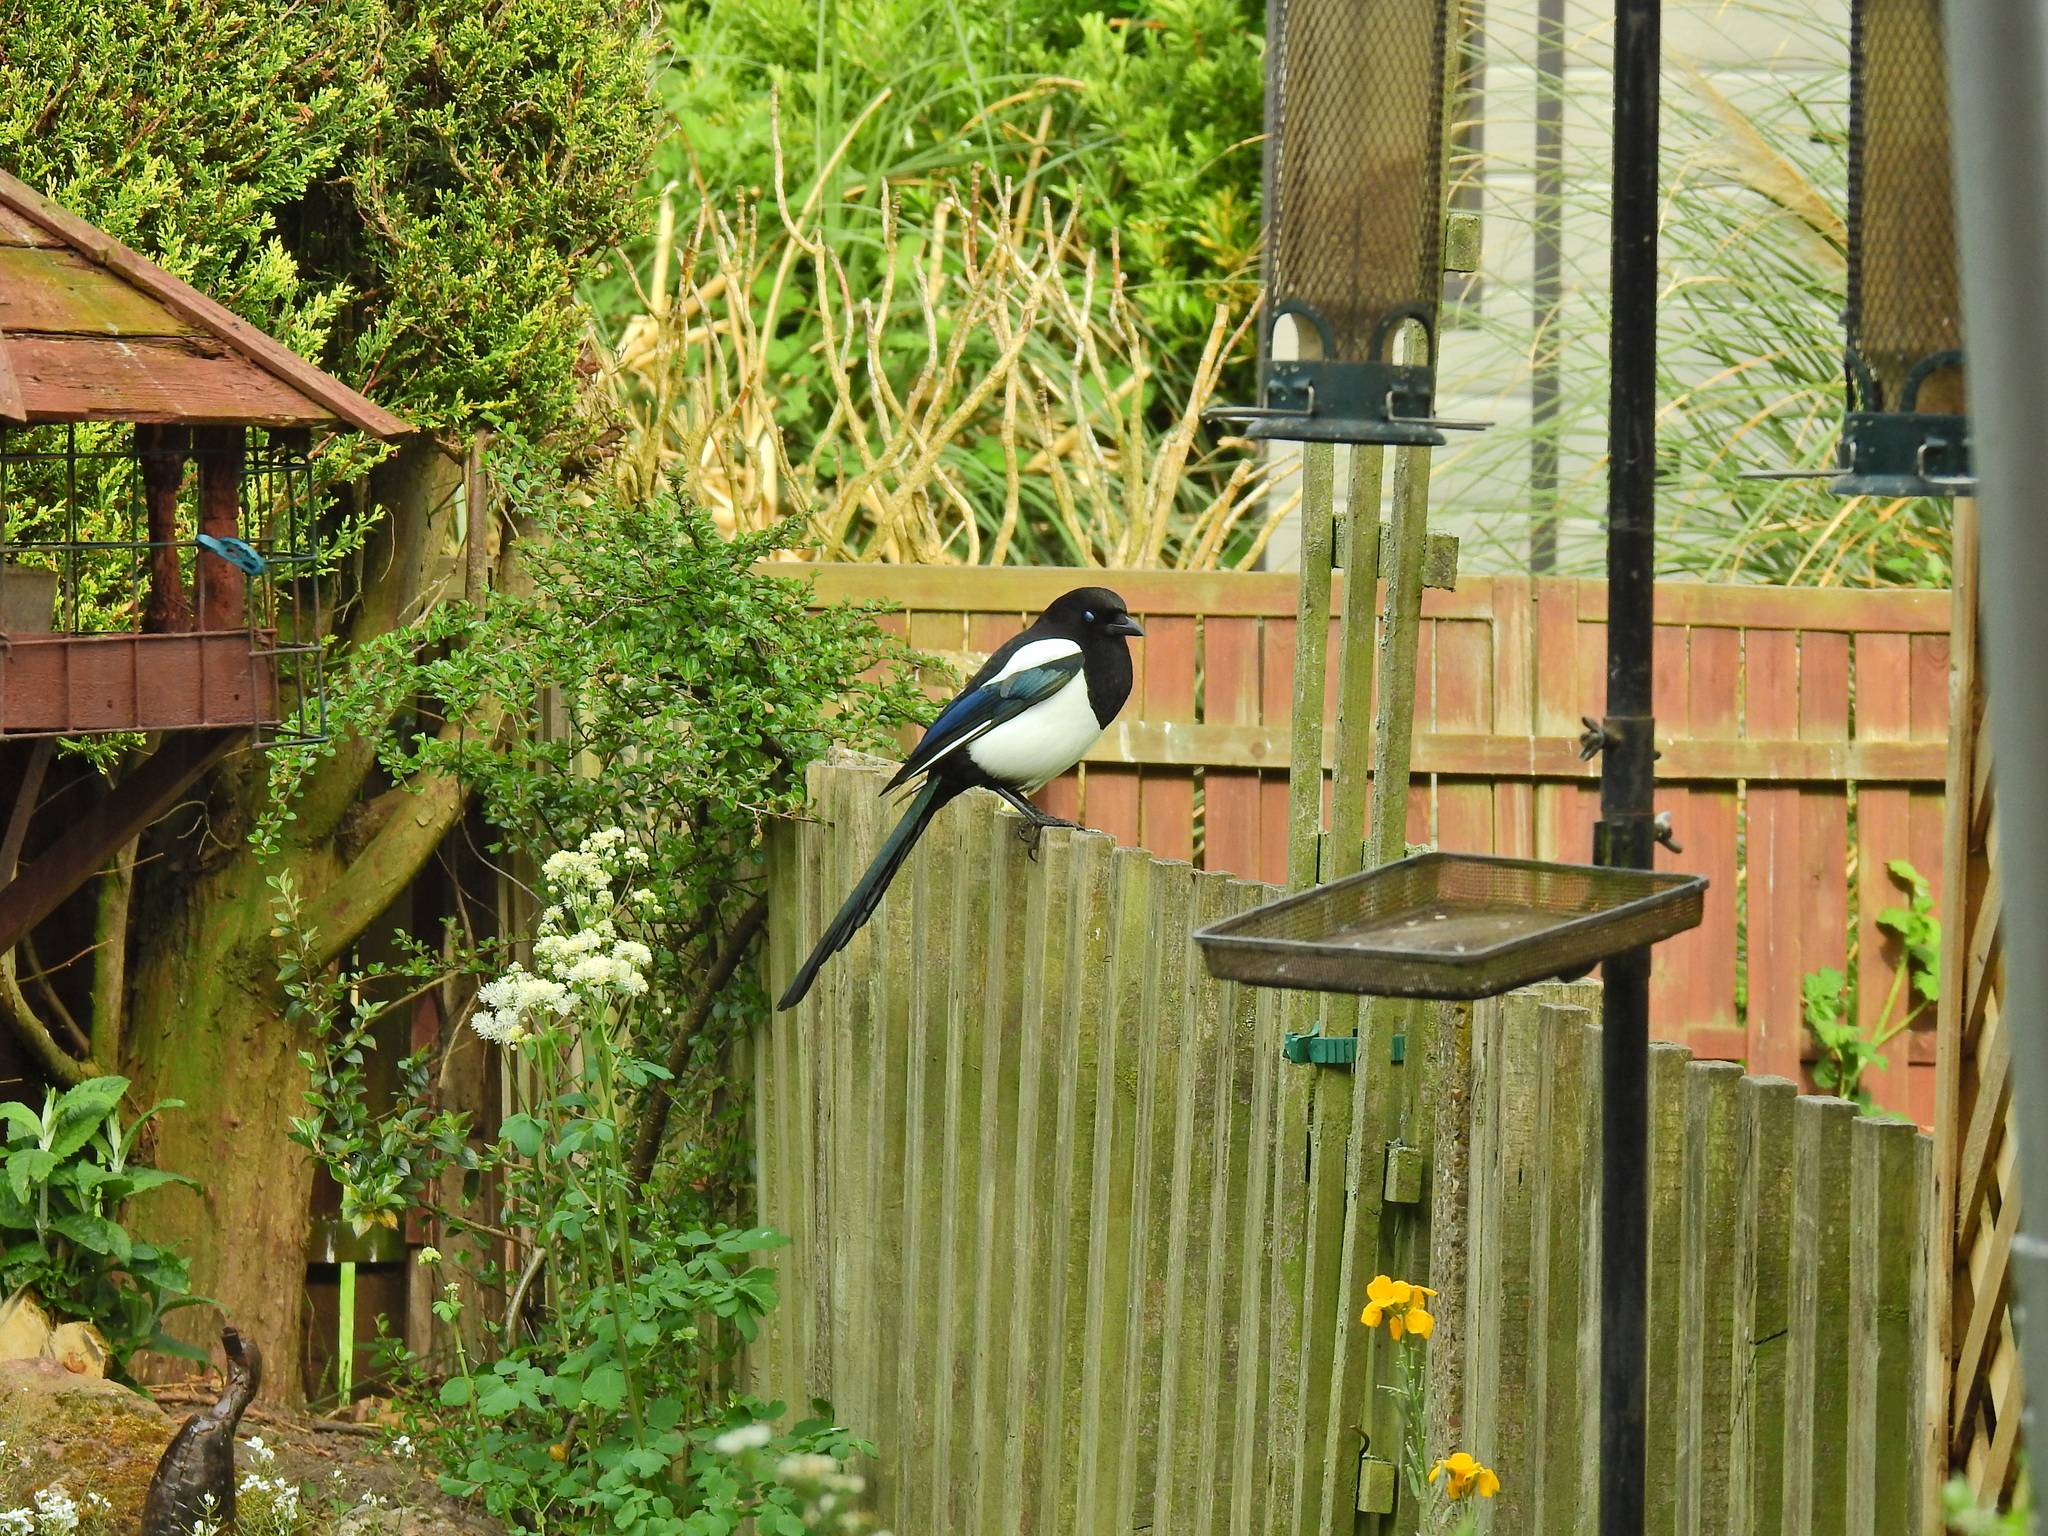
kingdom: Animalia
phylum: Chordata
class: Aves
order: Passeriformes
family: Corvidae
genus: Pica
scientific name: Pica pica
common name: Eurasian magpie
